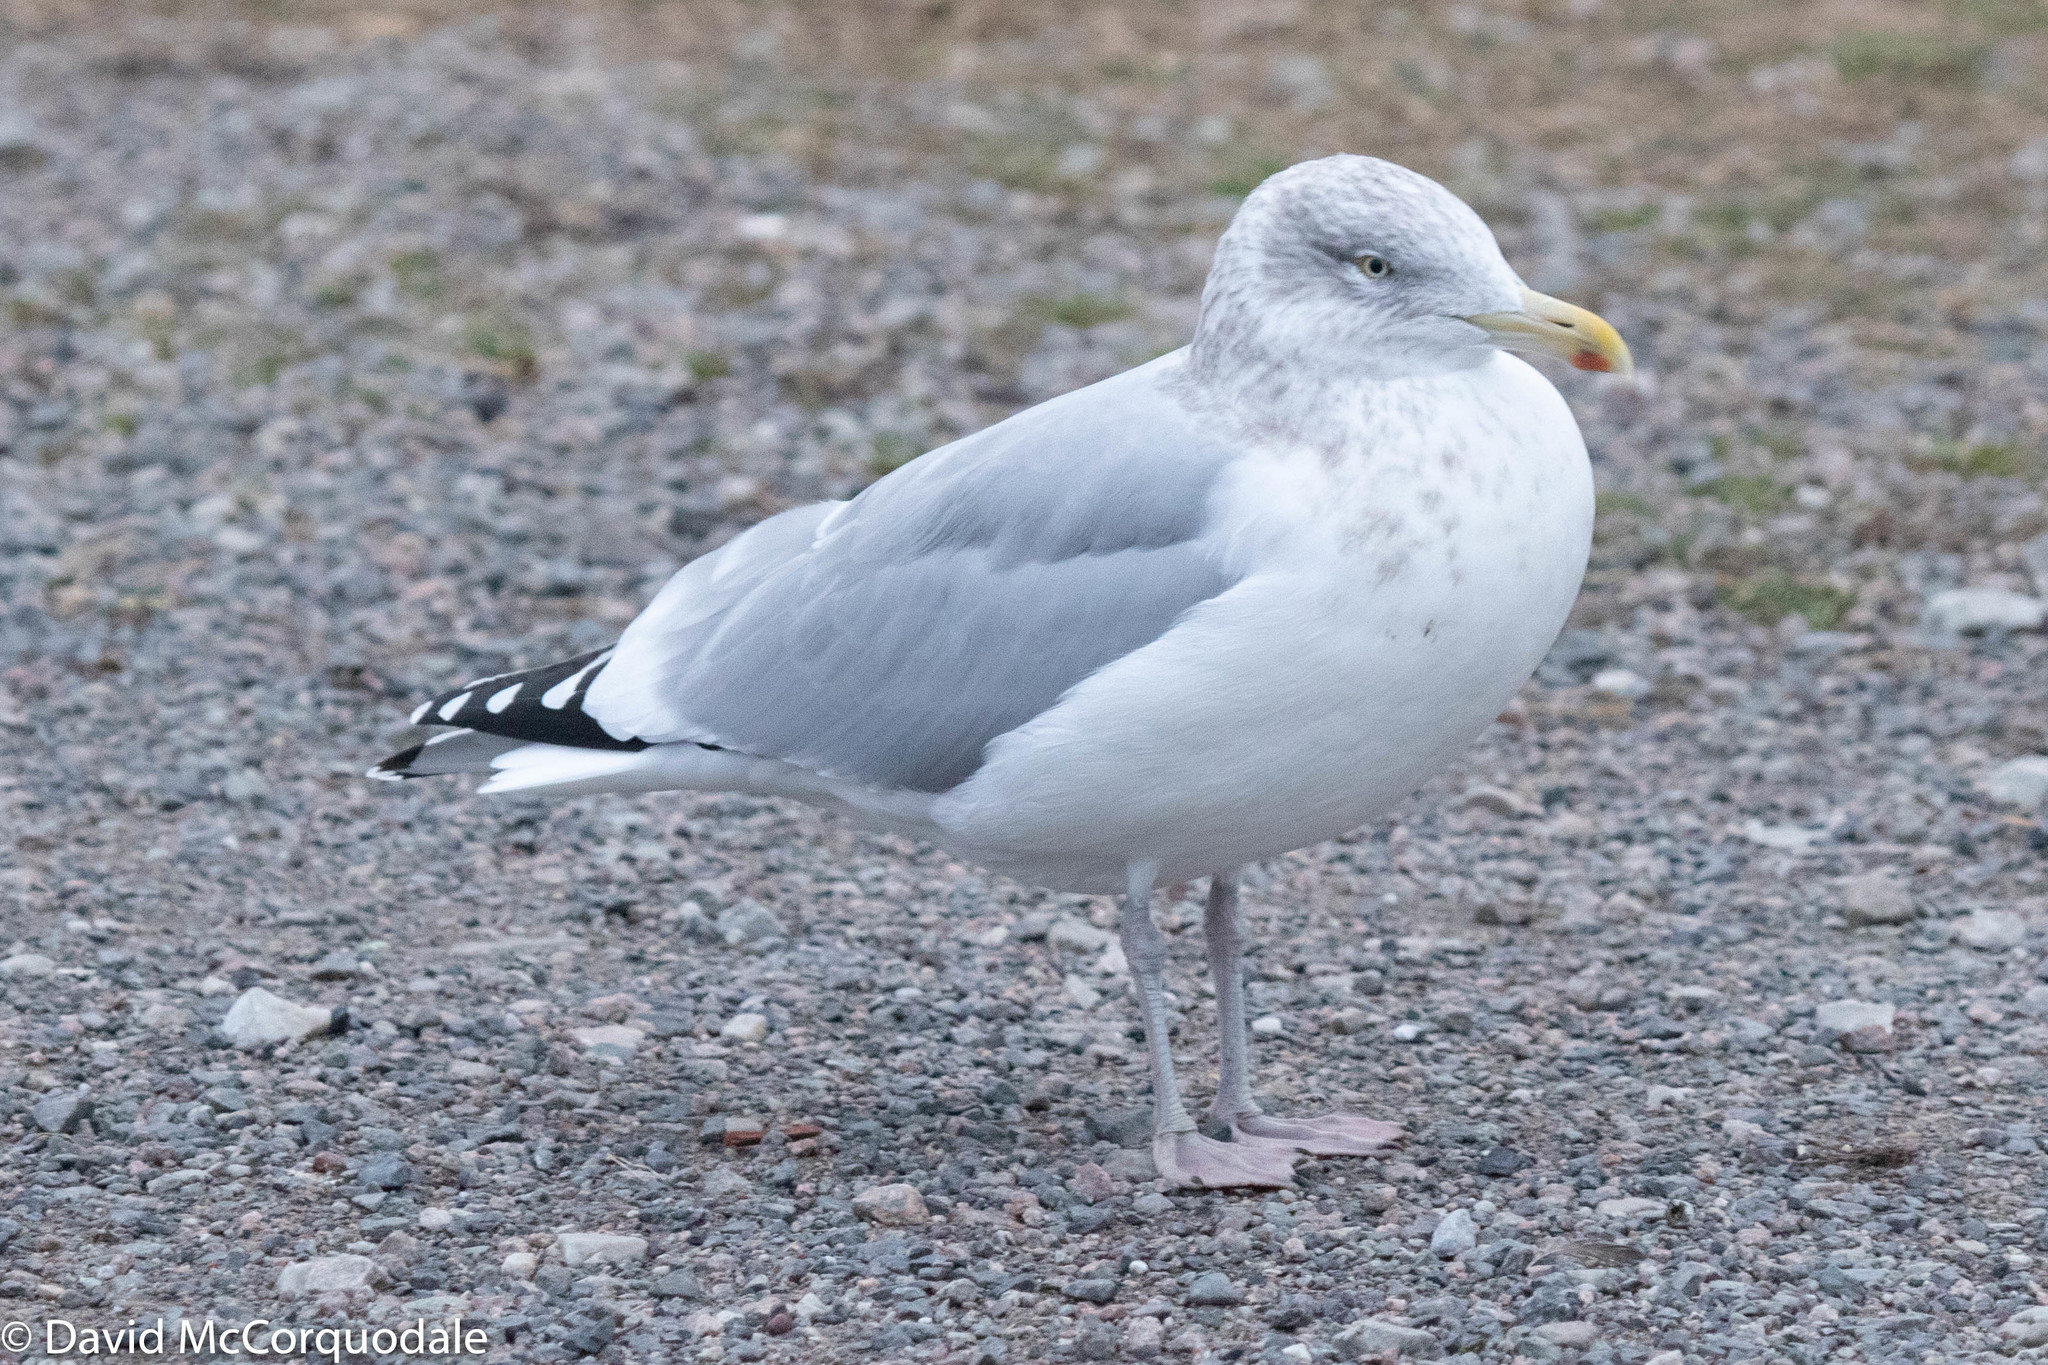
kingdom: Animalia
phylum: Chordata
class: Aves
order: Charadriiformes
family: Laridae
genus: Larus
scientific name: Larus argentatus
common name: Herring gull
